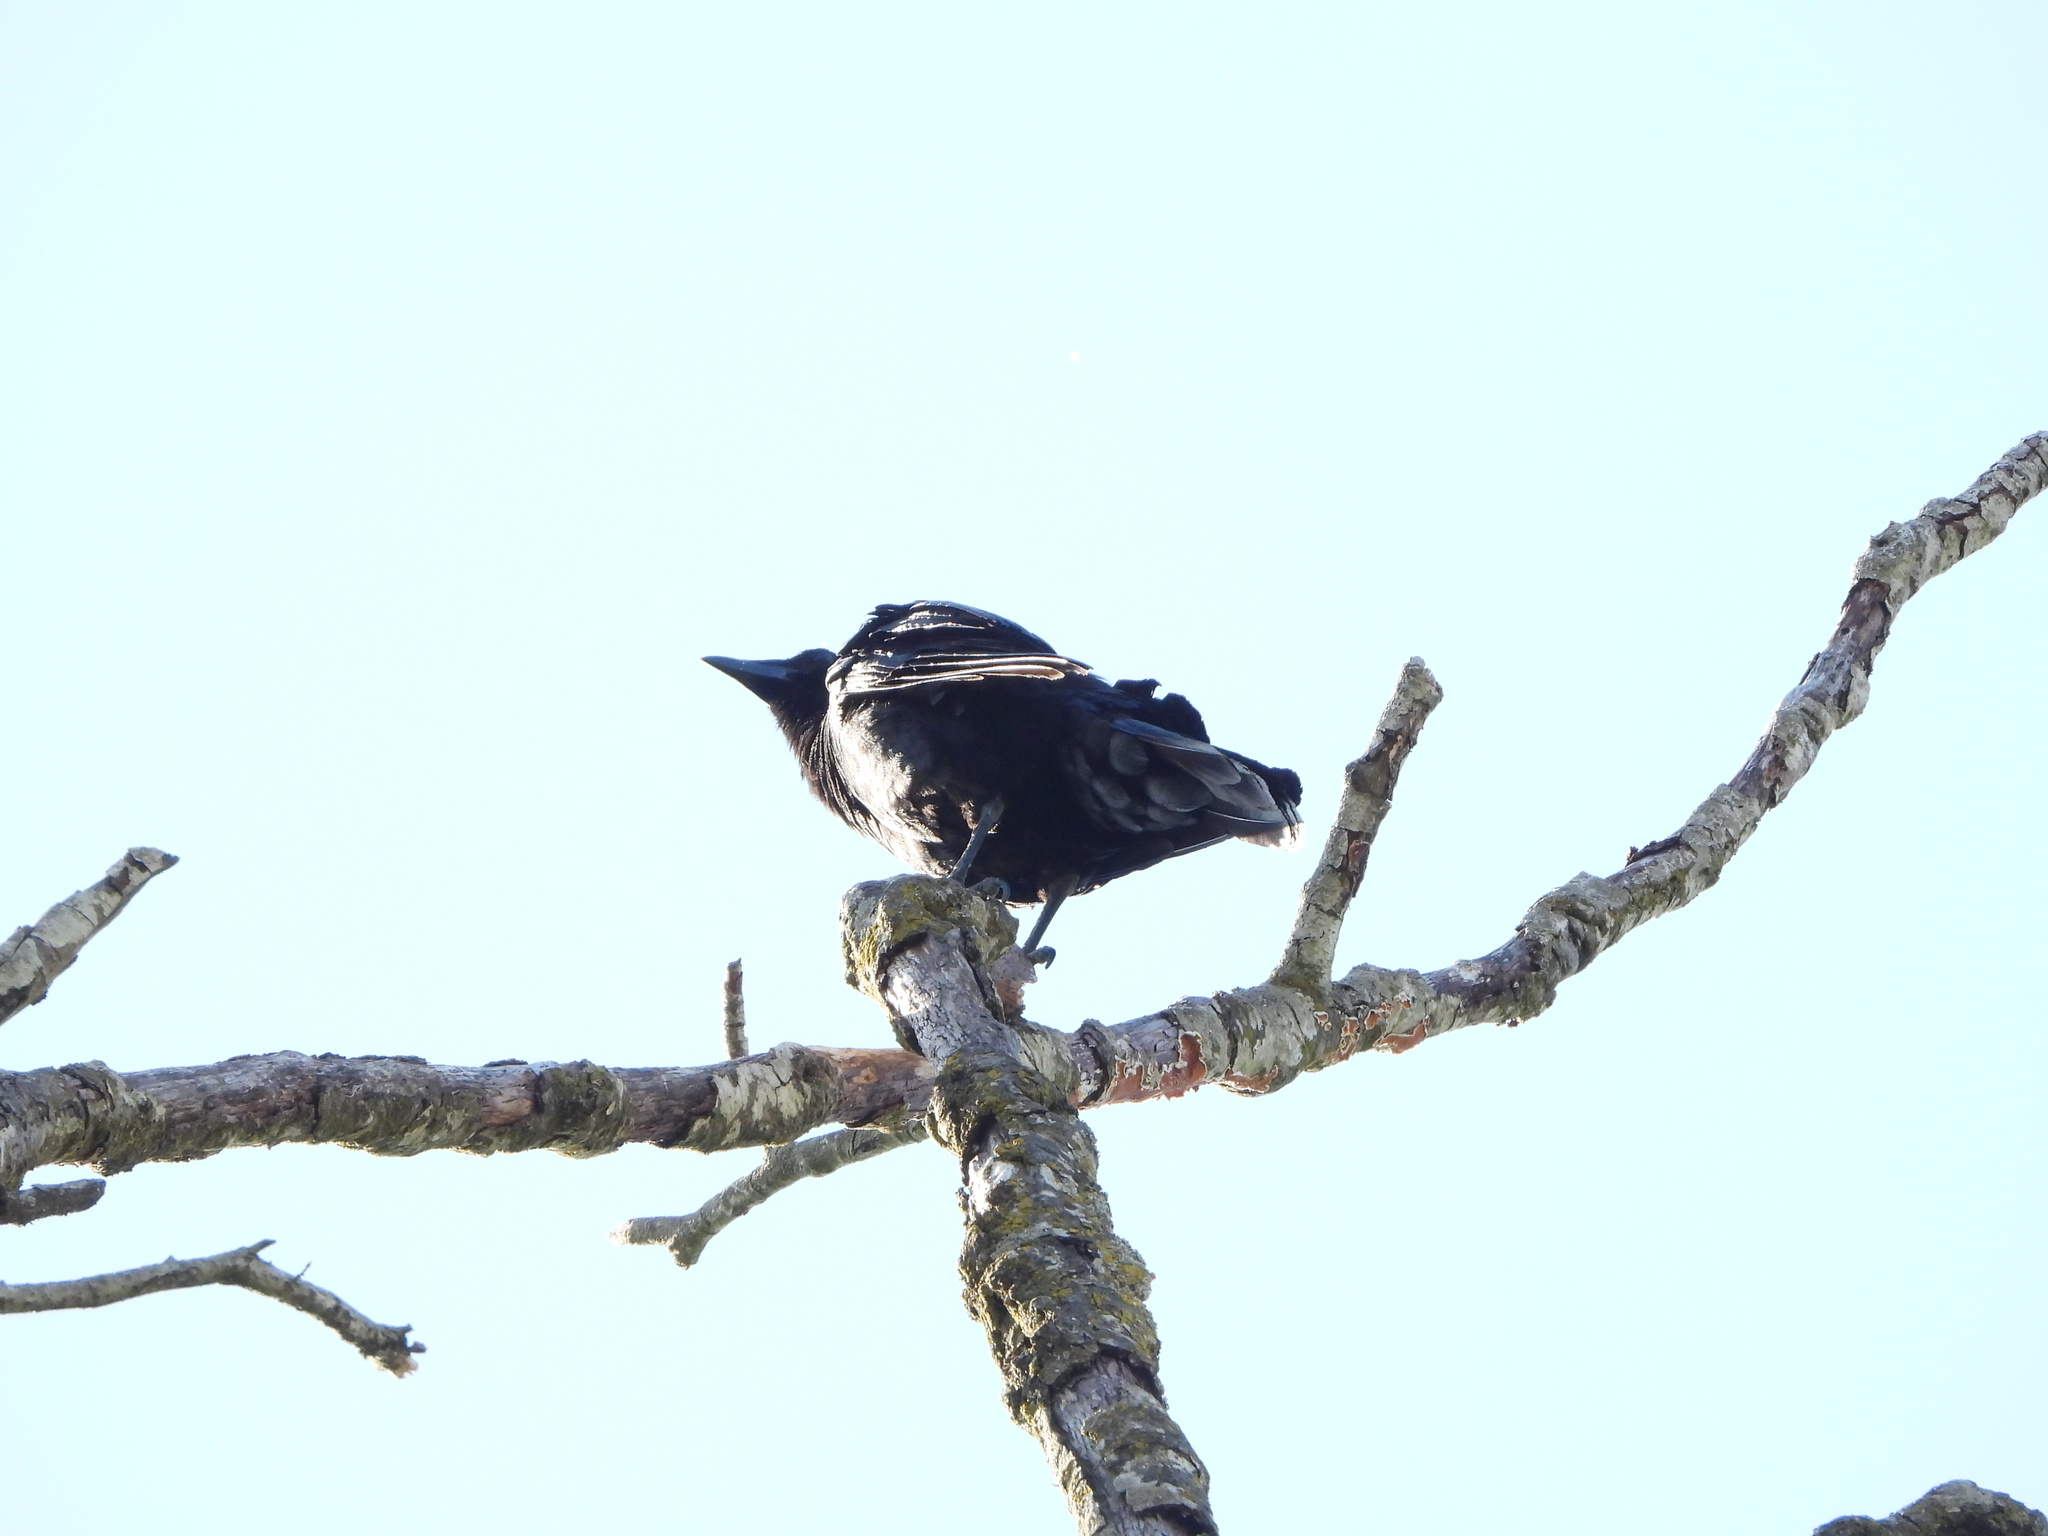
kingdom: Animalia
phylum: Chordata
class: Aves
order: Passeriformes
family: Corvidae
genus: Corvus
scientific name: Corvus brachyrhynchos
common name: American crow
